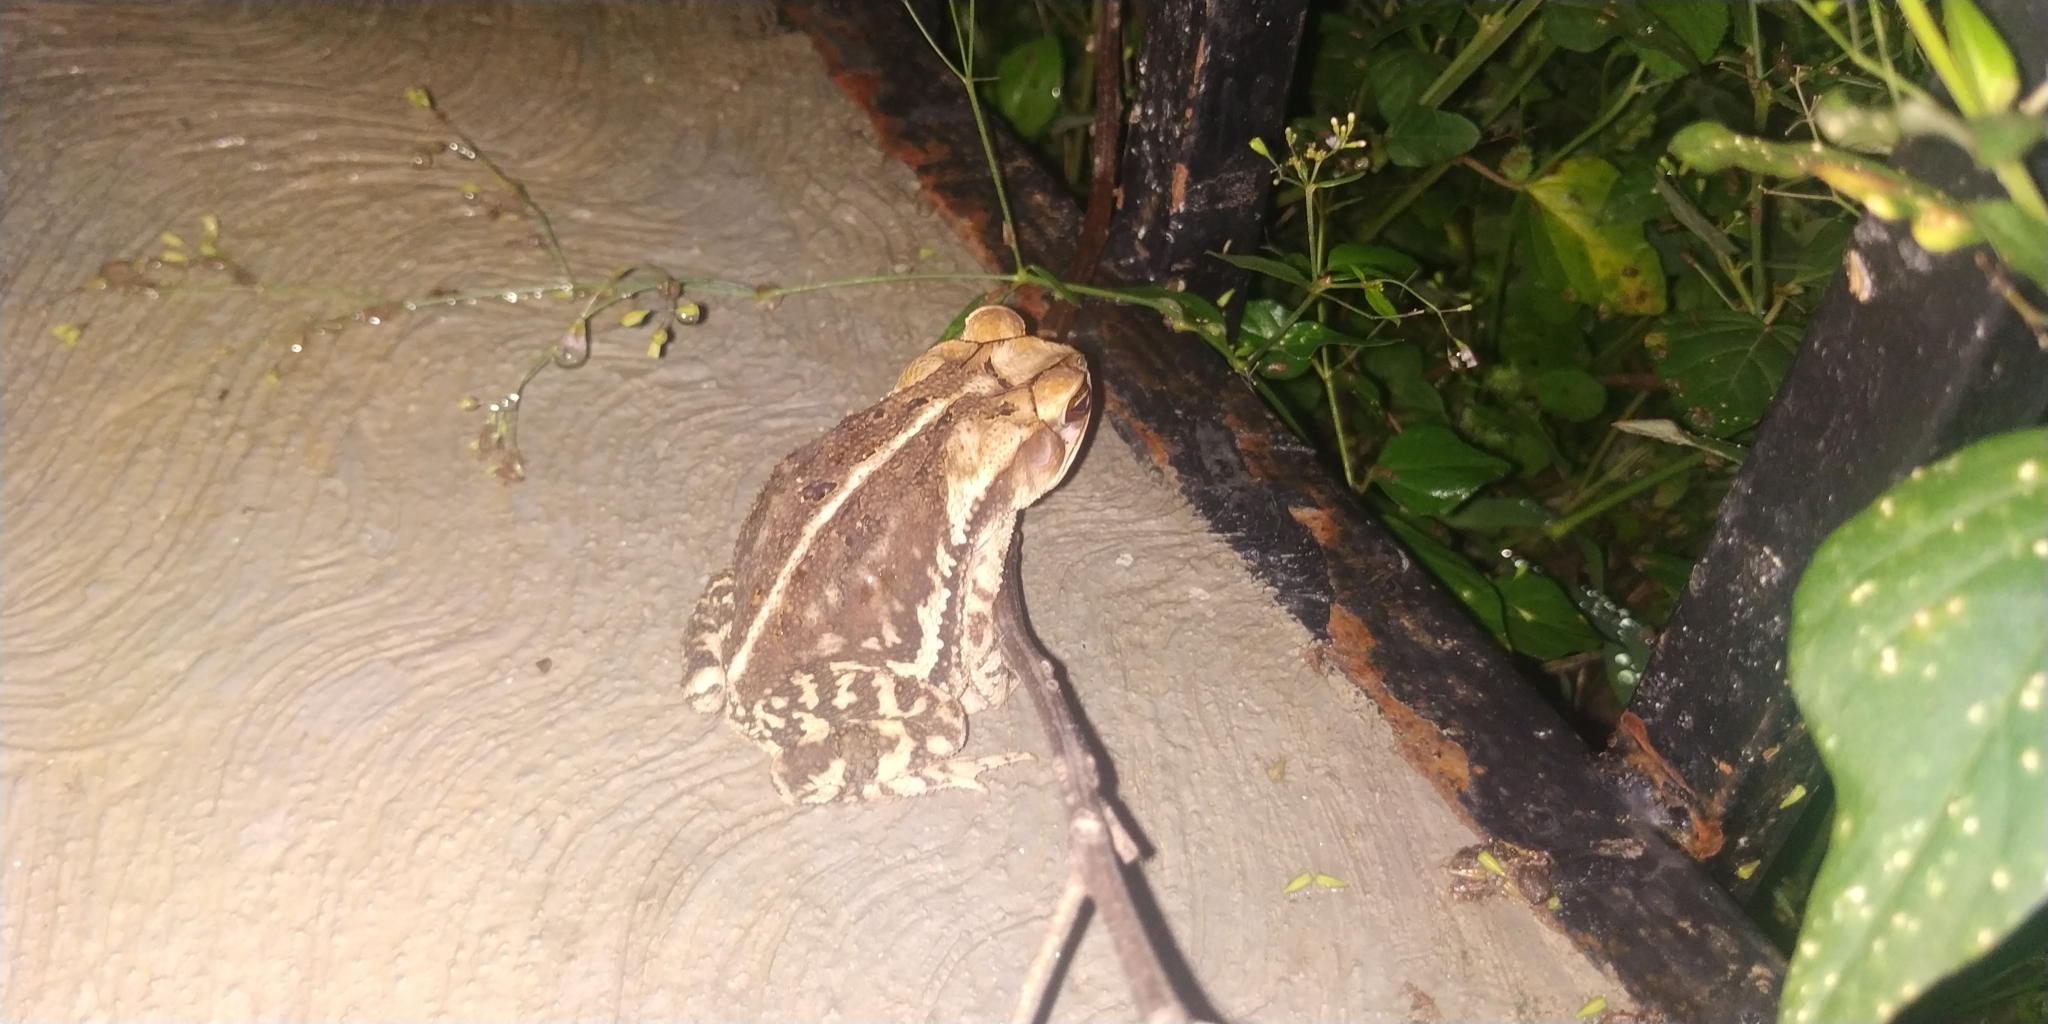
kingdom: Animalia
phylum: Chordata
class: Amphibia
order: Anura
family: Bufonidae
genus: Incilius
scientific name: Incilius nebulifer
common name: Gulf coast toad
